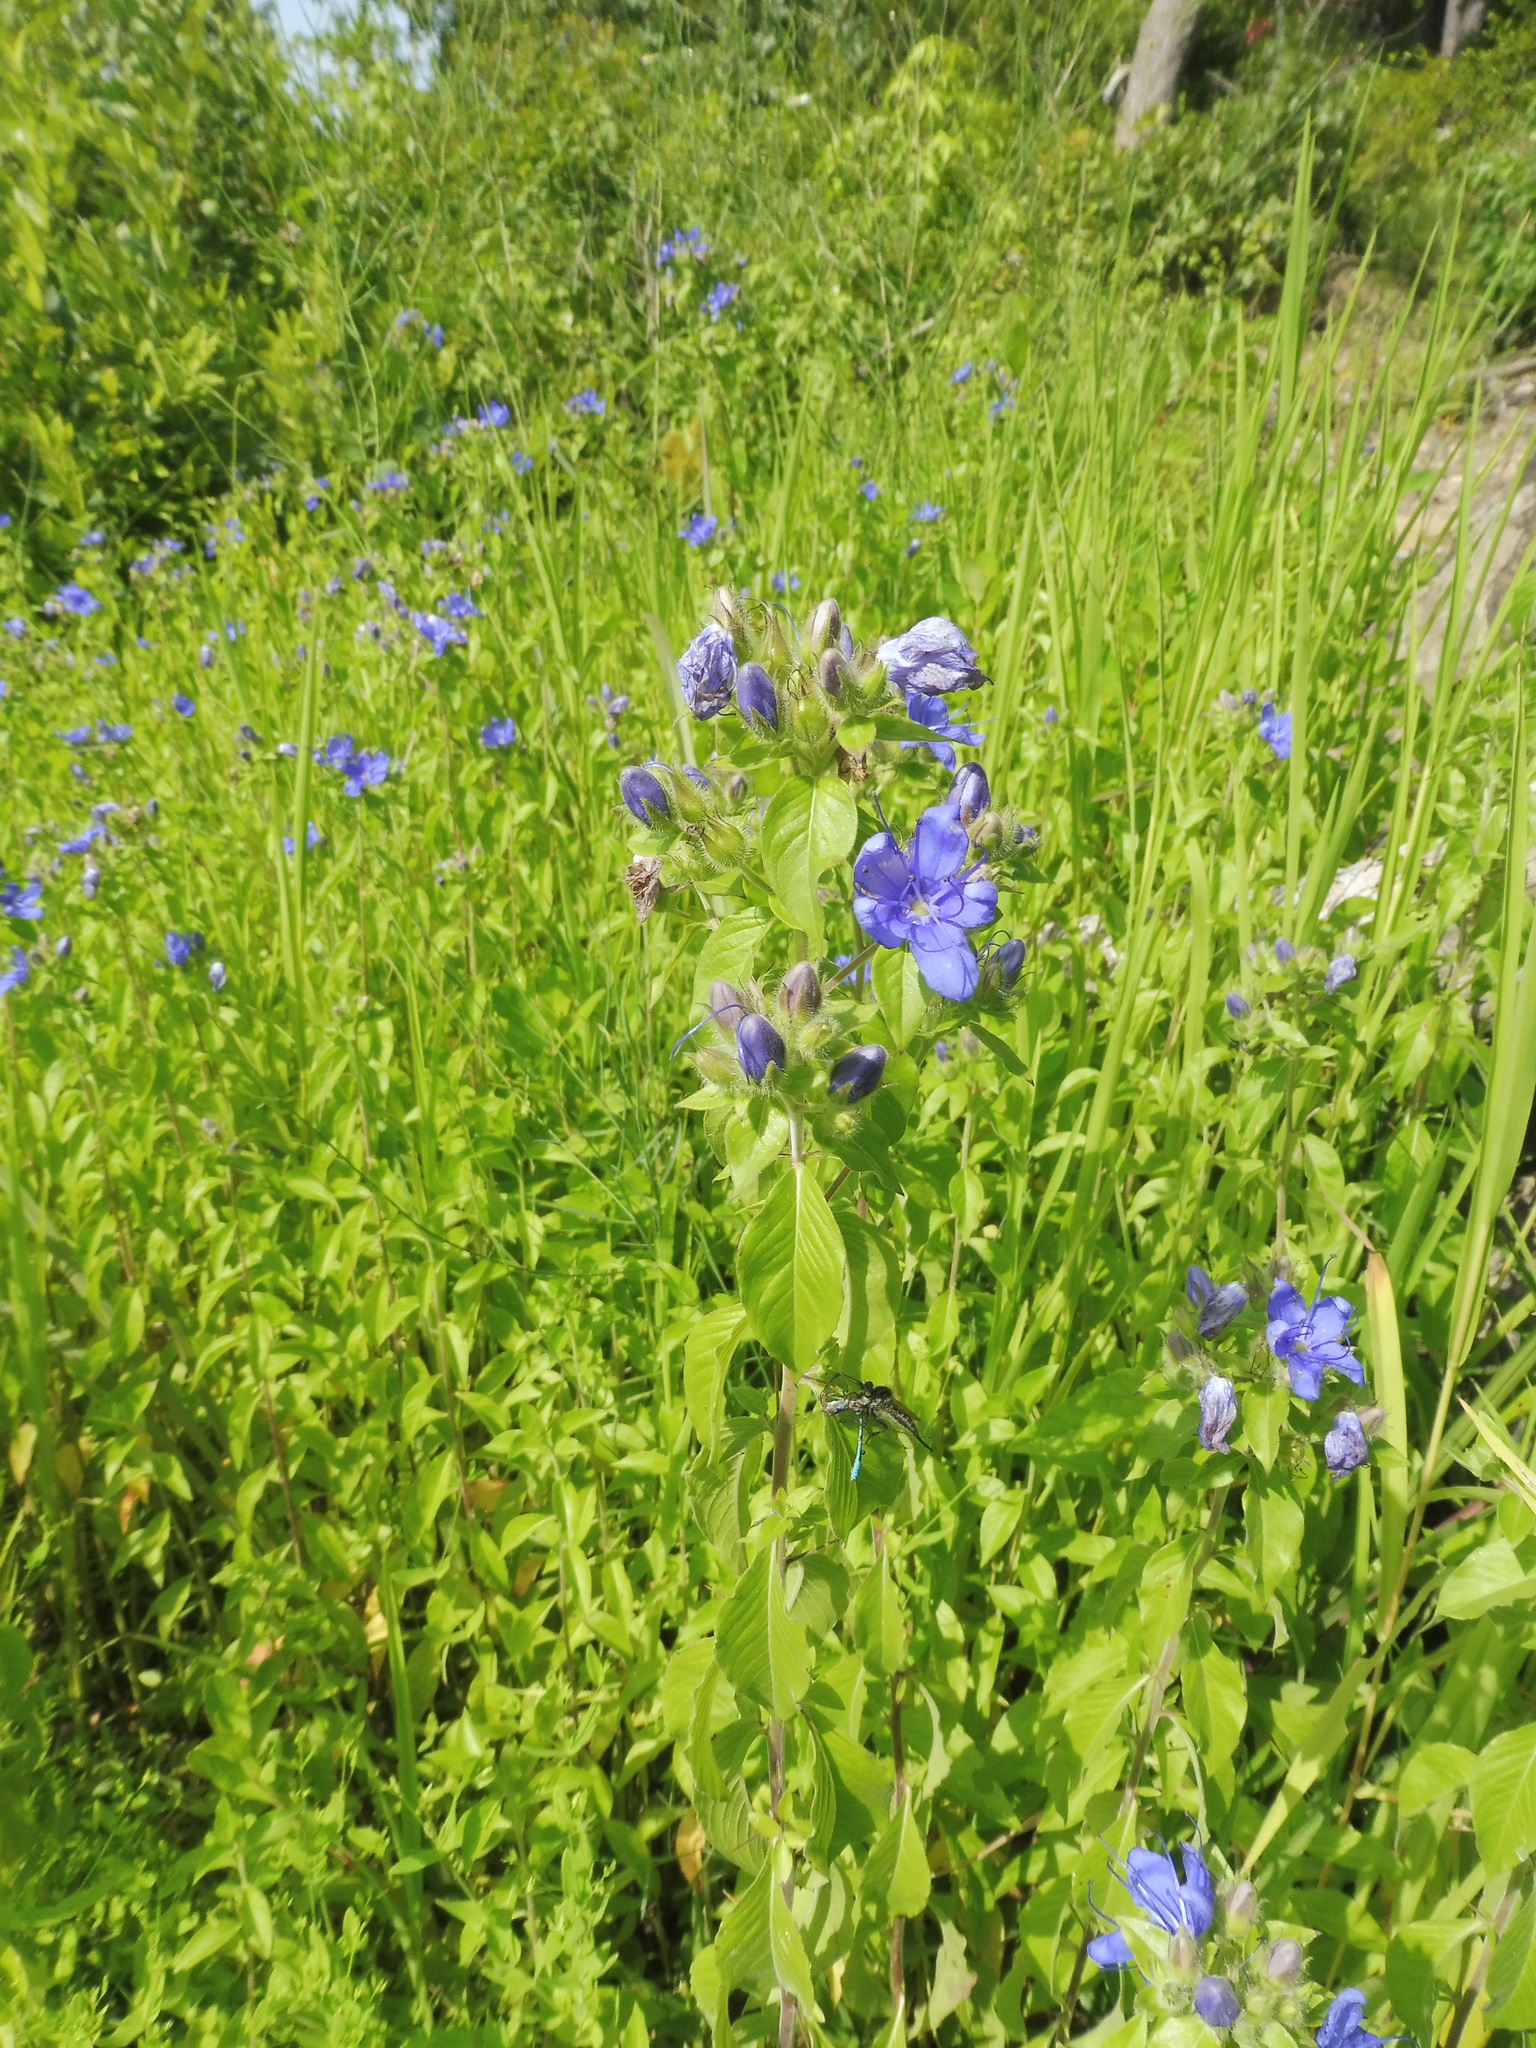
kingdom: Plantae
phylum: Tracheophyta
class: Magnoliopsida
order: Solanales
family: Hydroleaceae
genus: Hydrolea
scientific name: Hydrolea ovata
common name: Ovate false fiddleleaf
